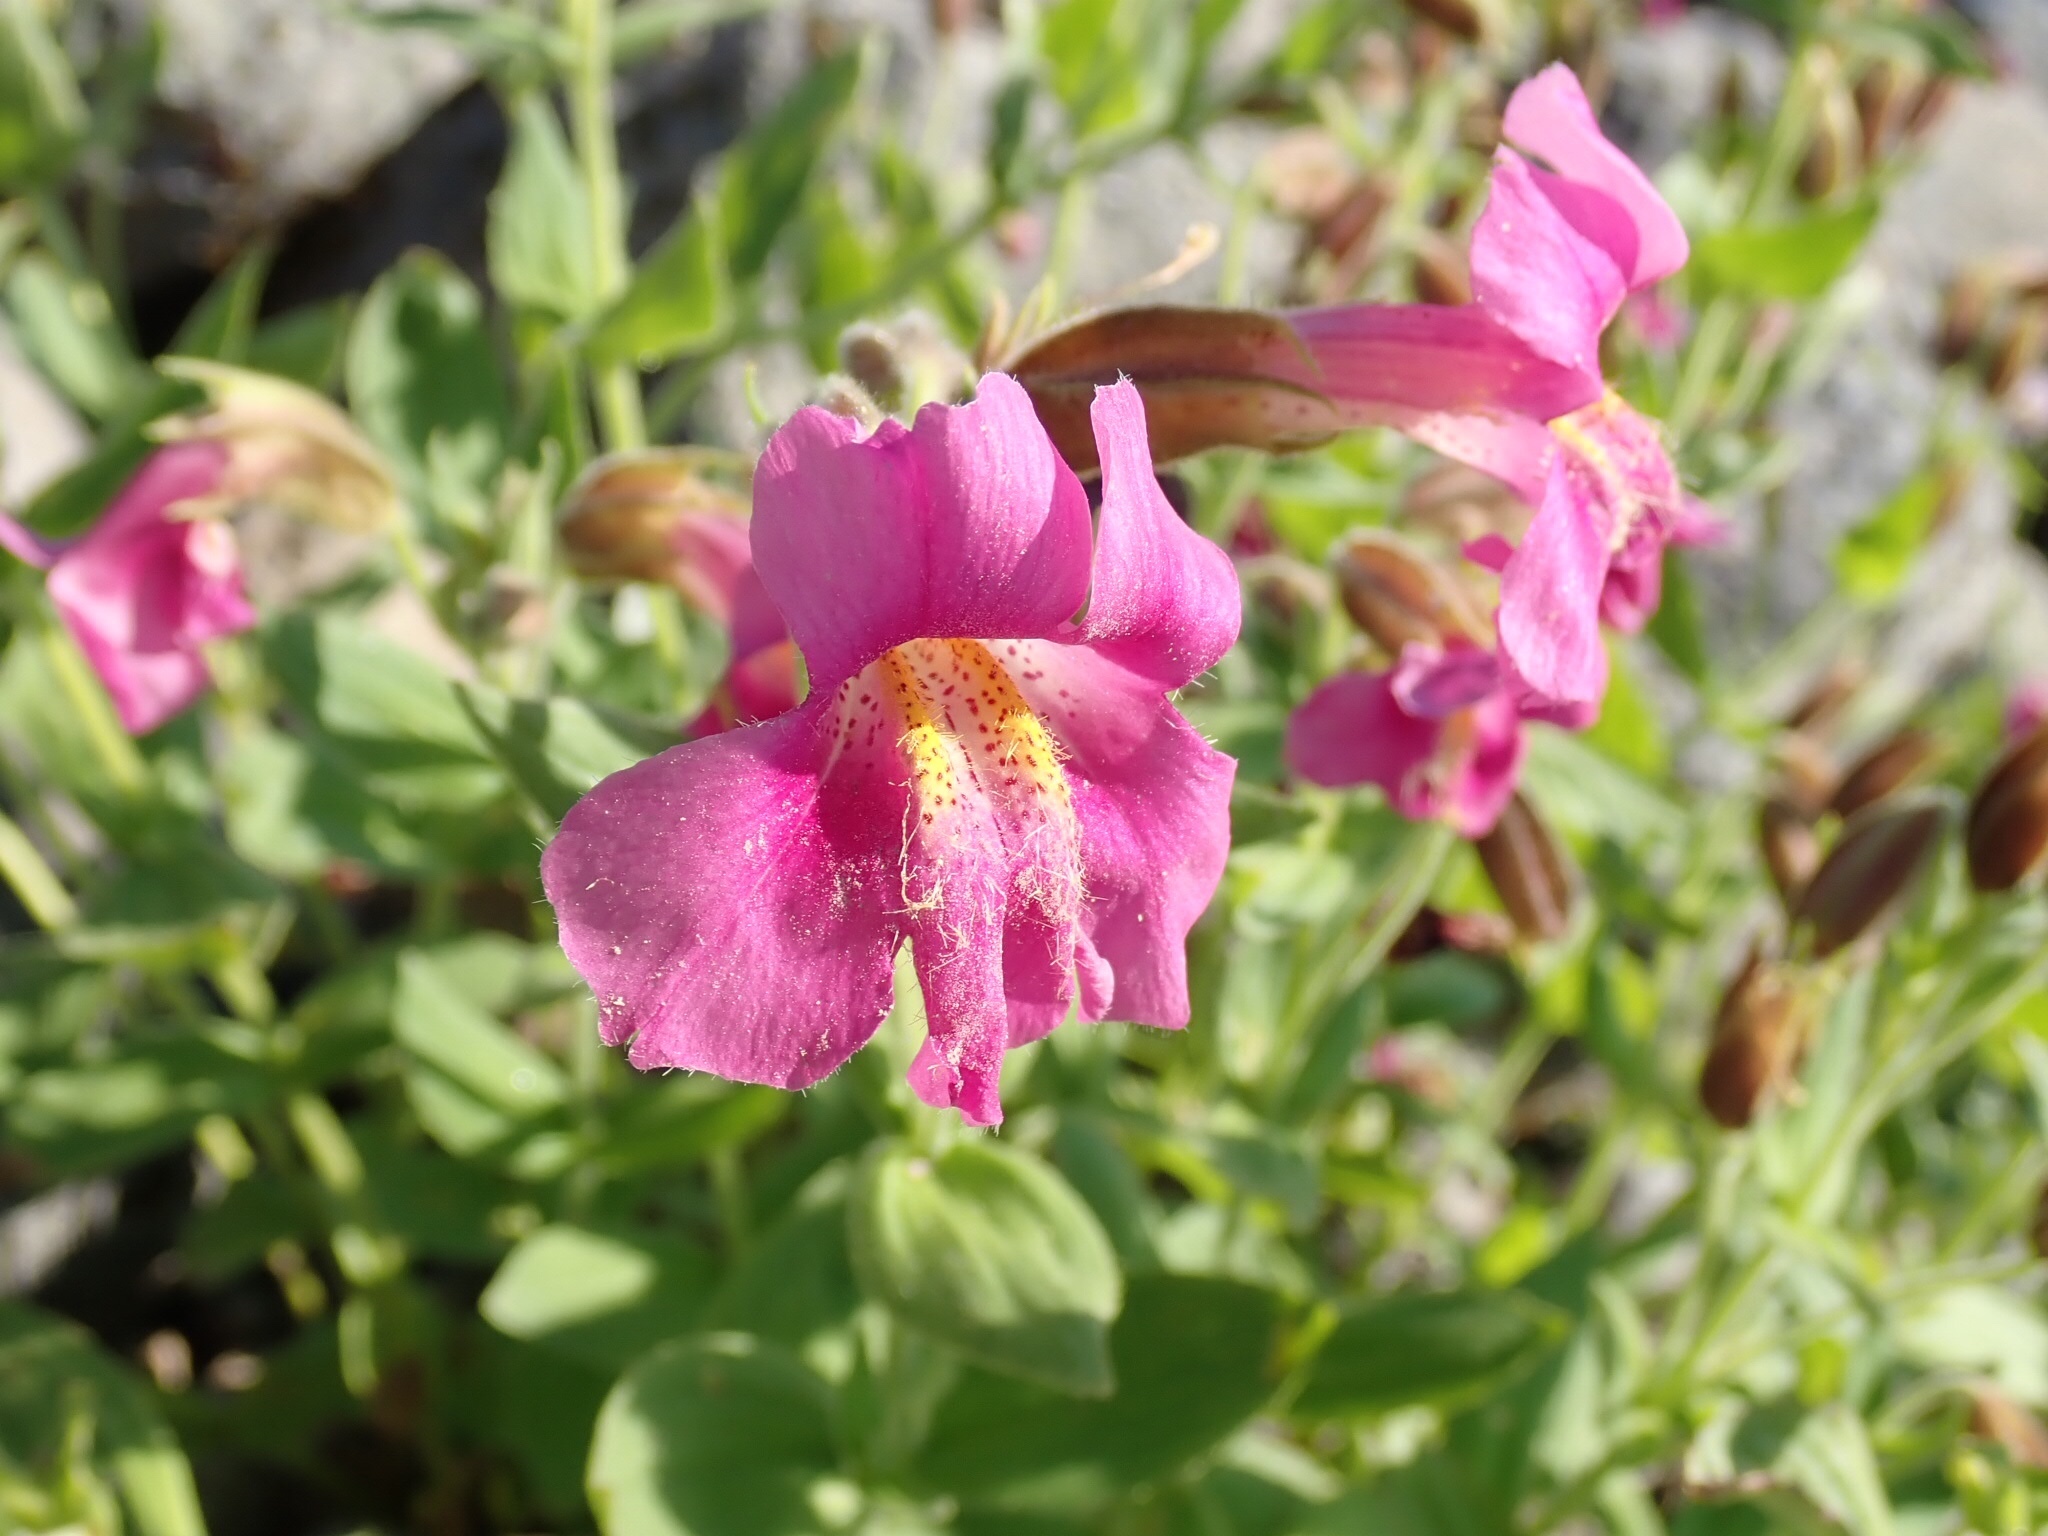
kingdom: Plantae
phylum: Tracheophyta
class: Magnoliopsida
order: Lamiales
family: Phrymaceae
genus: Erythranthe
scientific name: Erythranthe lewisii
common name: Lewis's monkey-flower
